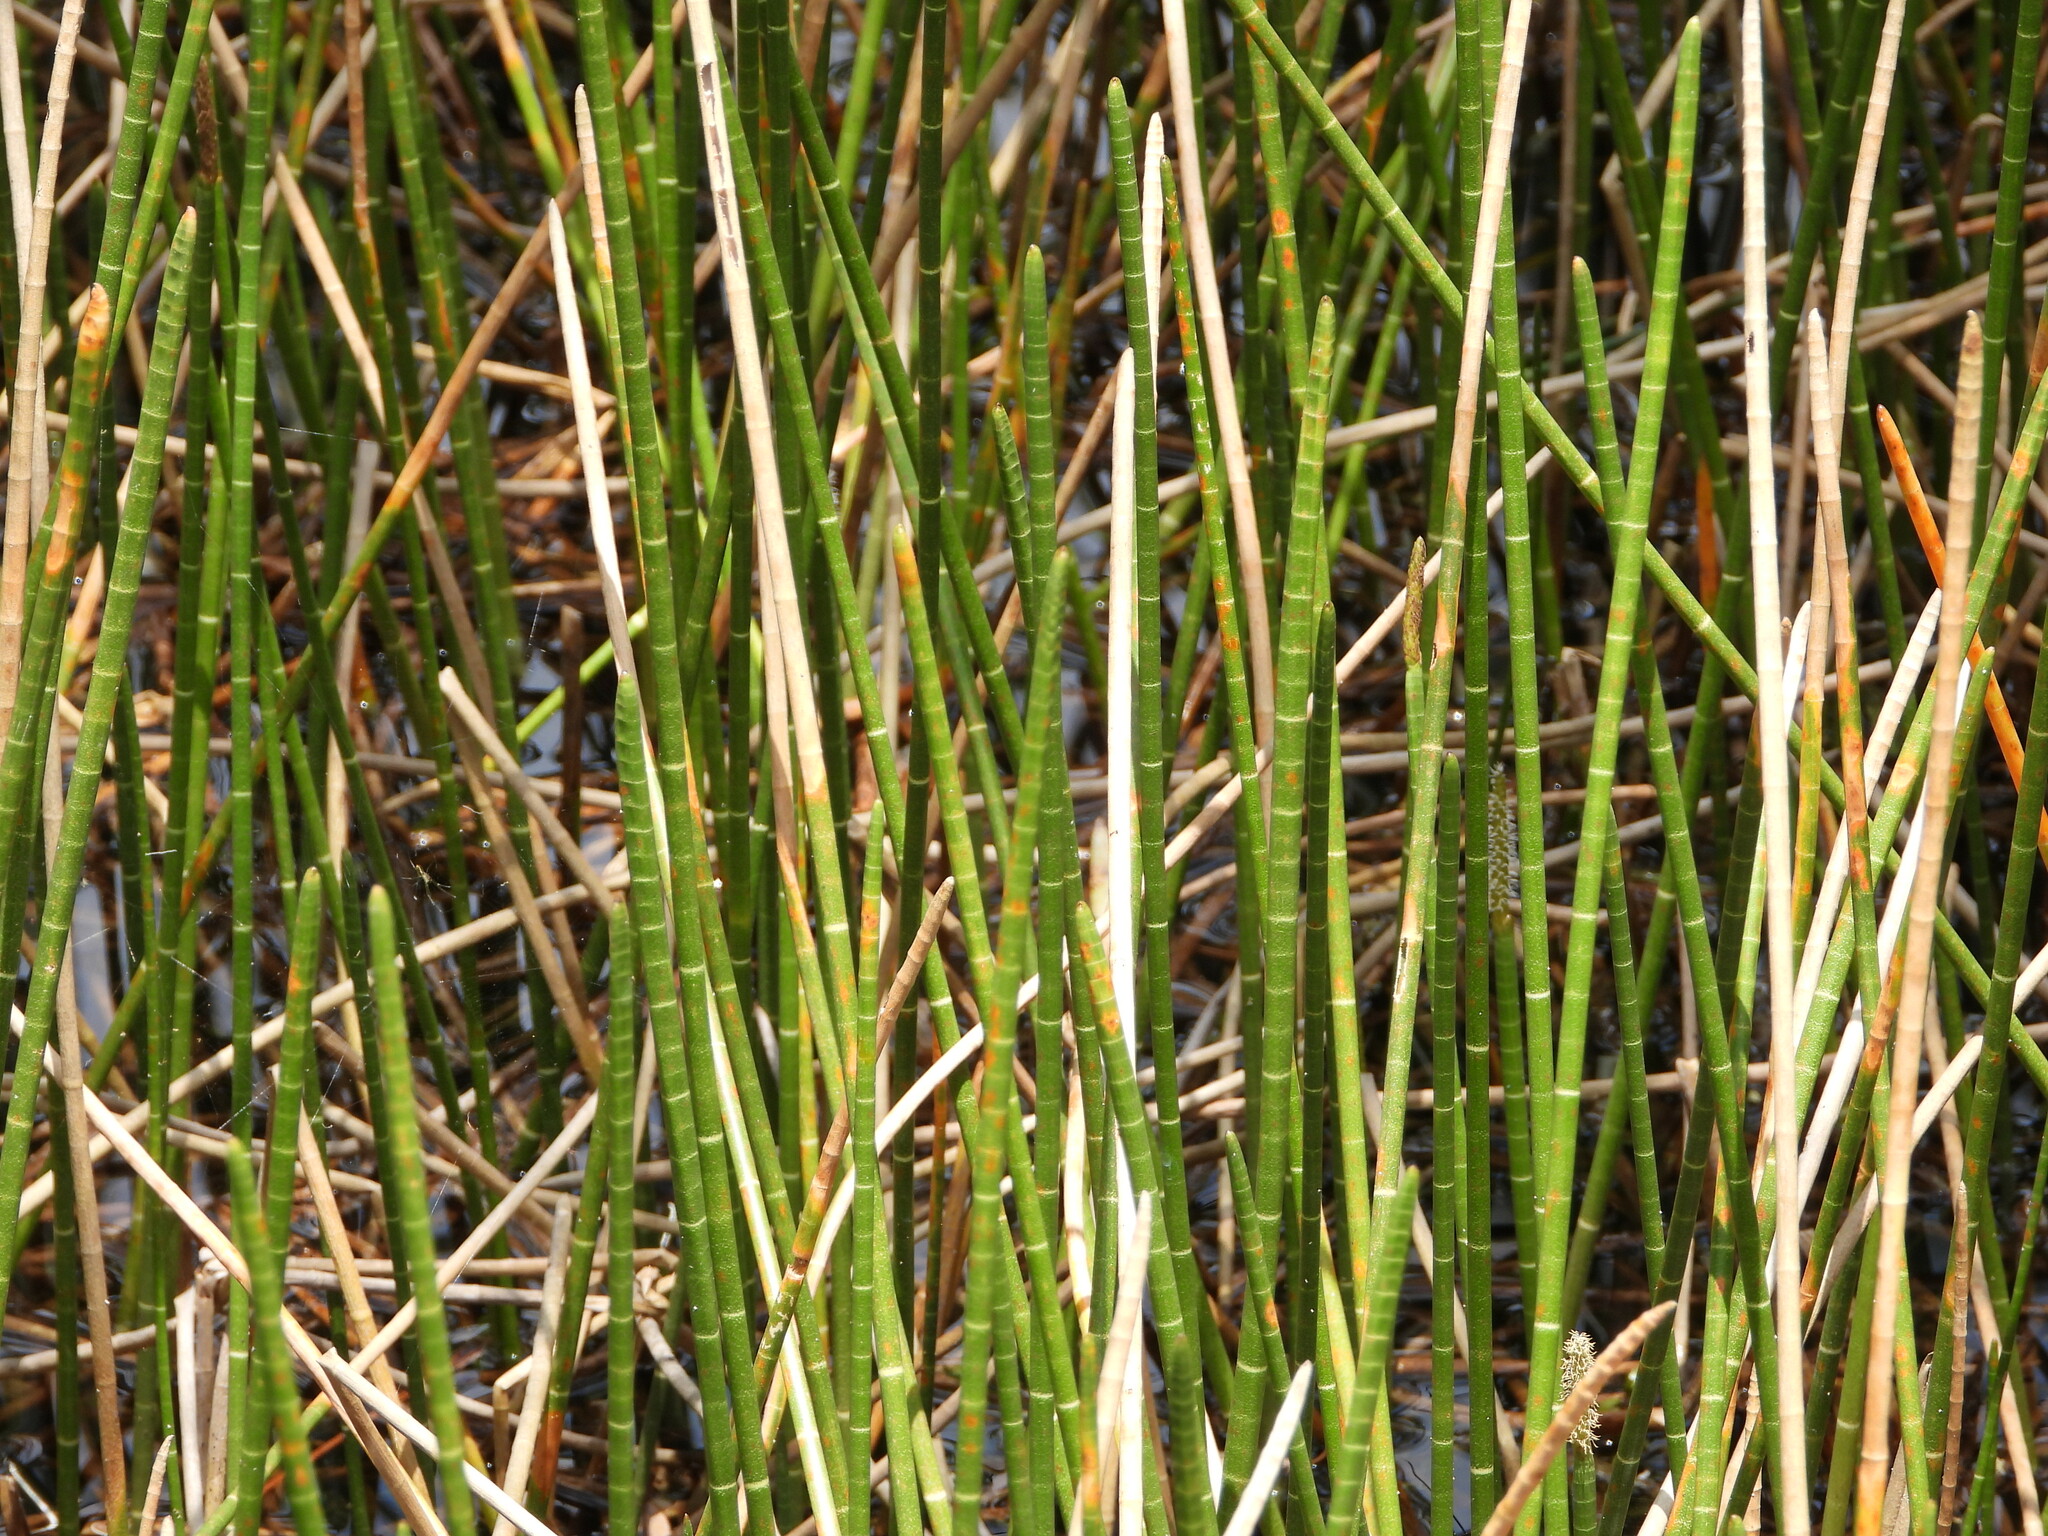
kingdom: Plantae
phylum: Tracheophyta
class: Liliopsida
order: Poales
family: Cyperaceae
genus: Eleocharis
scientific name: Eleocharis interstincta
